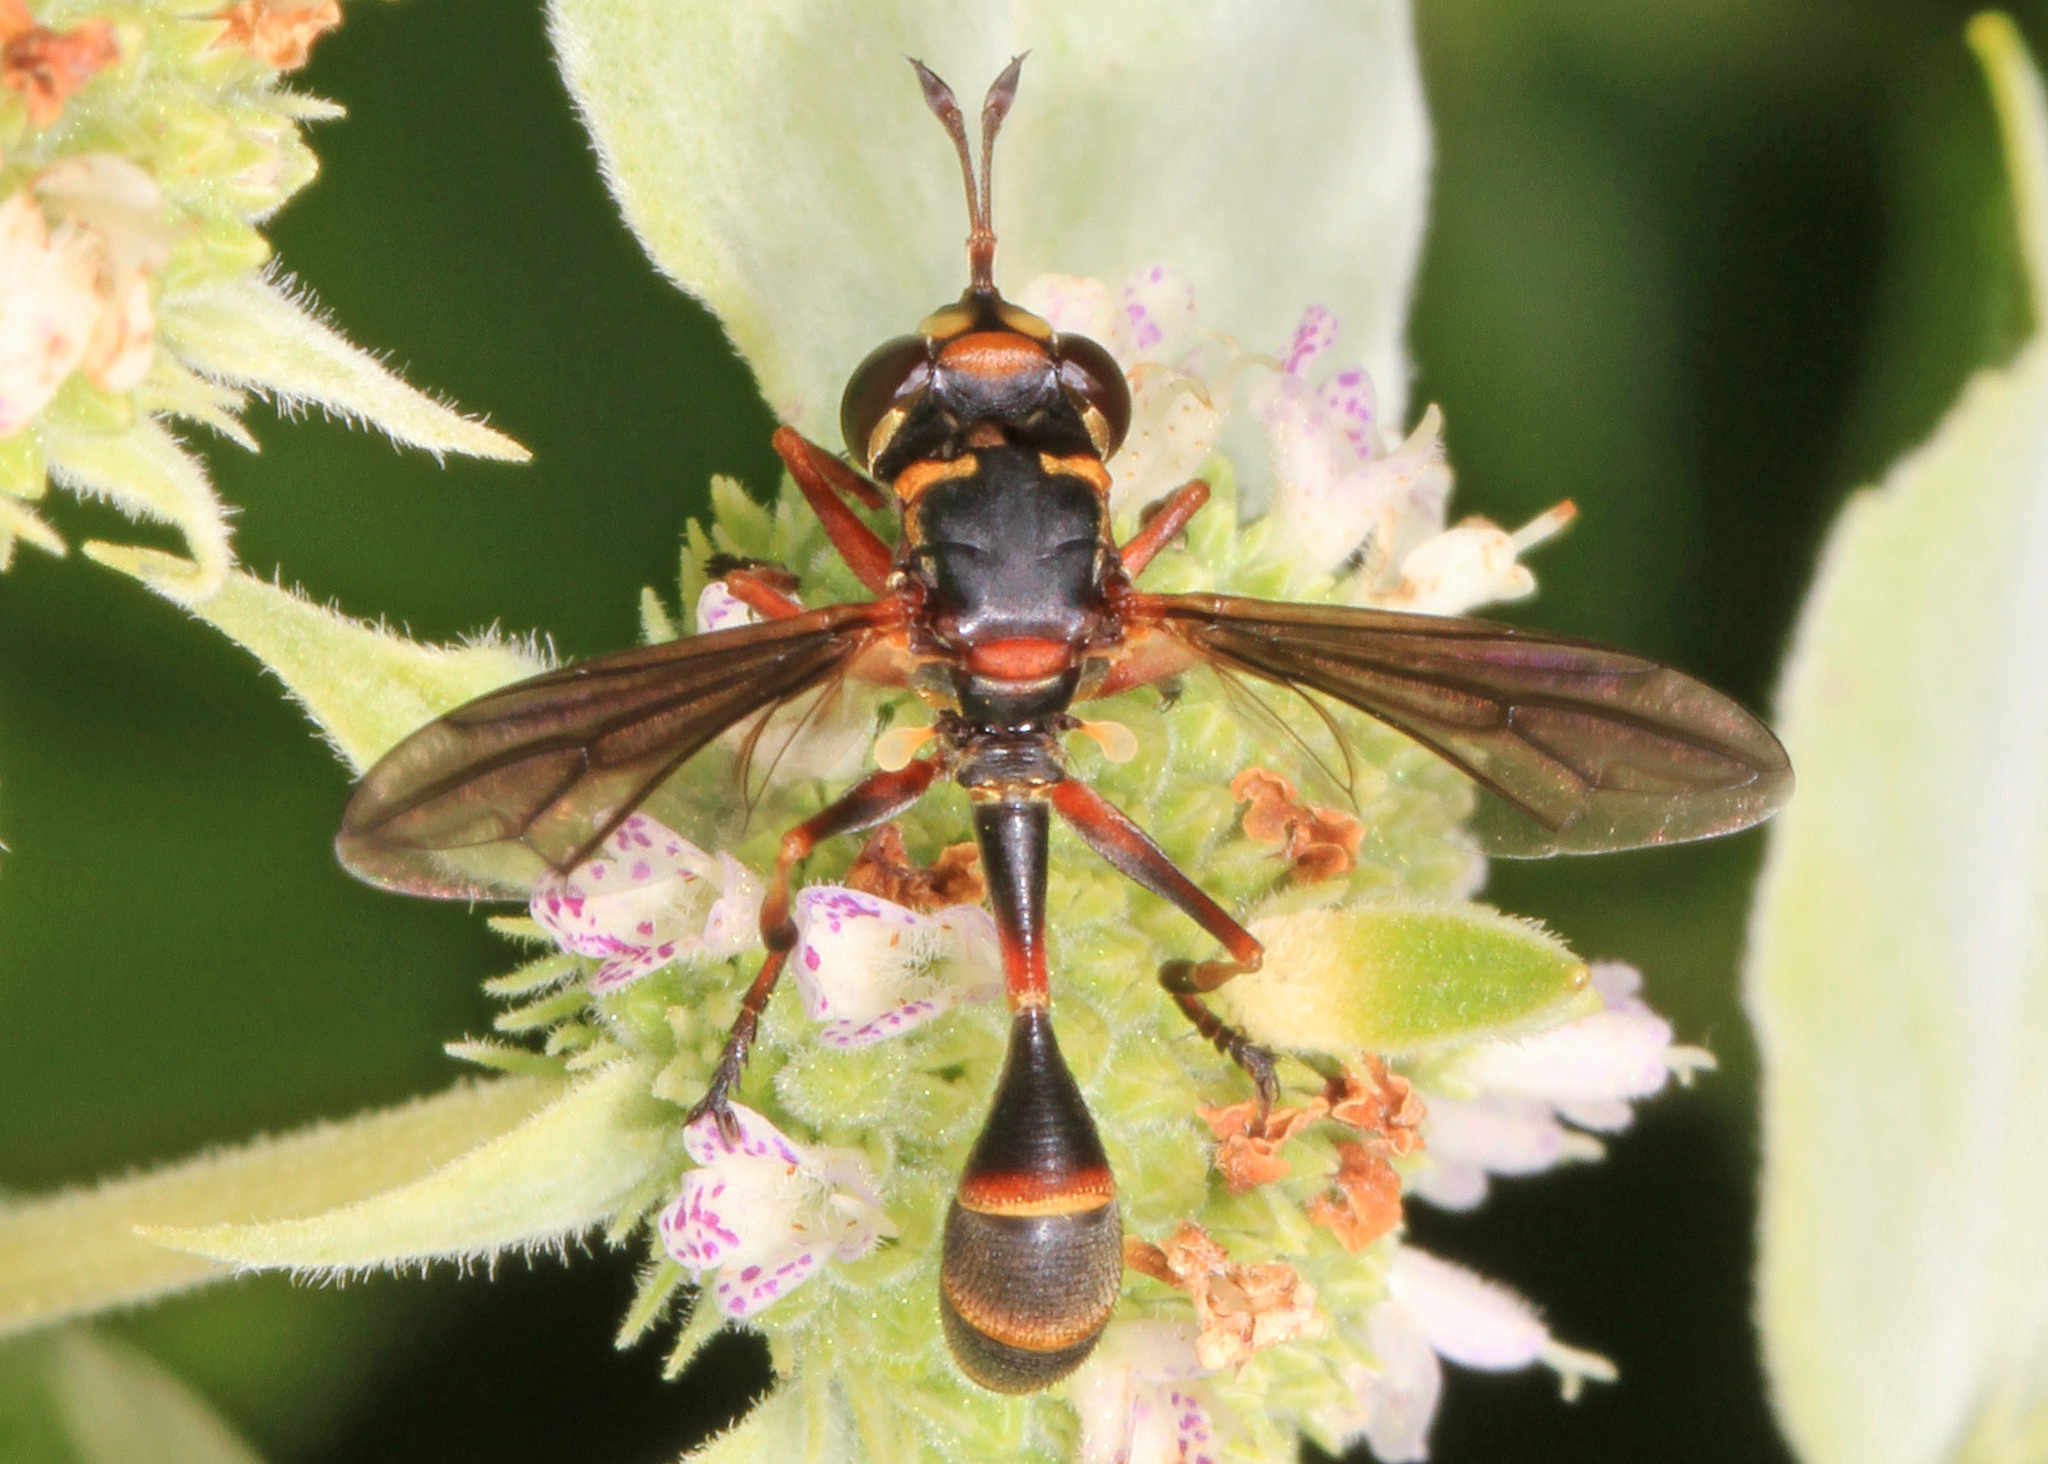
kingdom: Animalia
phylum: Arthropoda
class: Insecta
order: Diptera
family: Conopidae
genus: Physocephala
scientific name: Physocephala marginata
